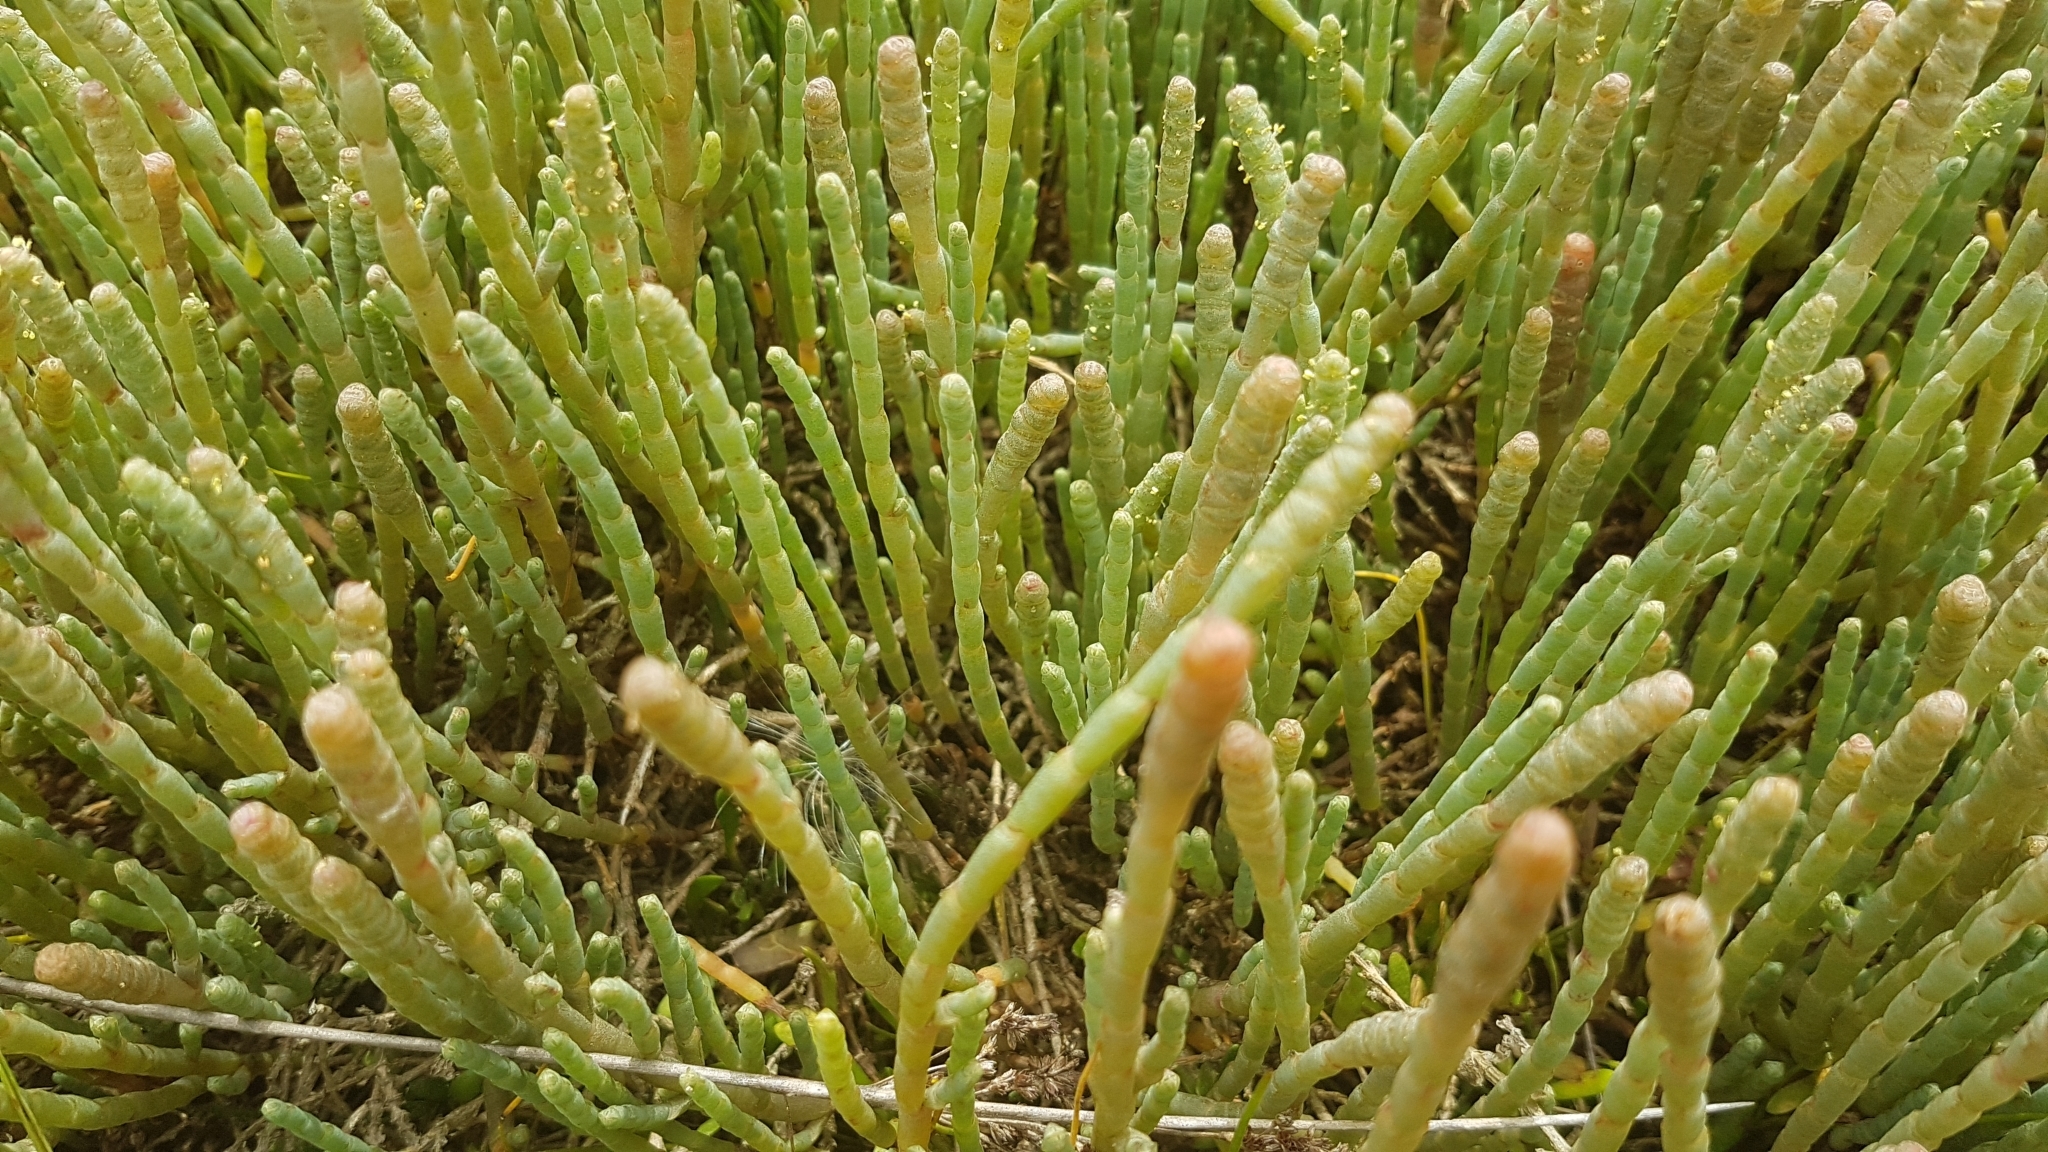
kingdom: Plantae
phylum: Tracheophyta
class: Magnoliopsida
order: Caryophyllales
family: Amaranthaceae
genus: Salicornia
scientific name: Salicornia quinqueflora
